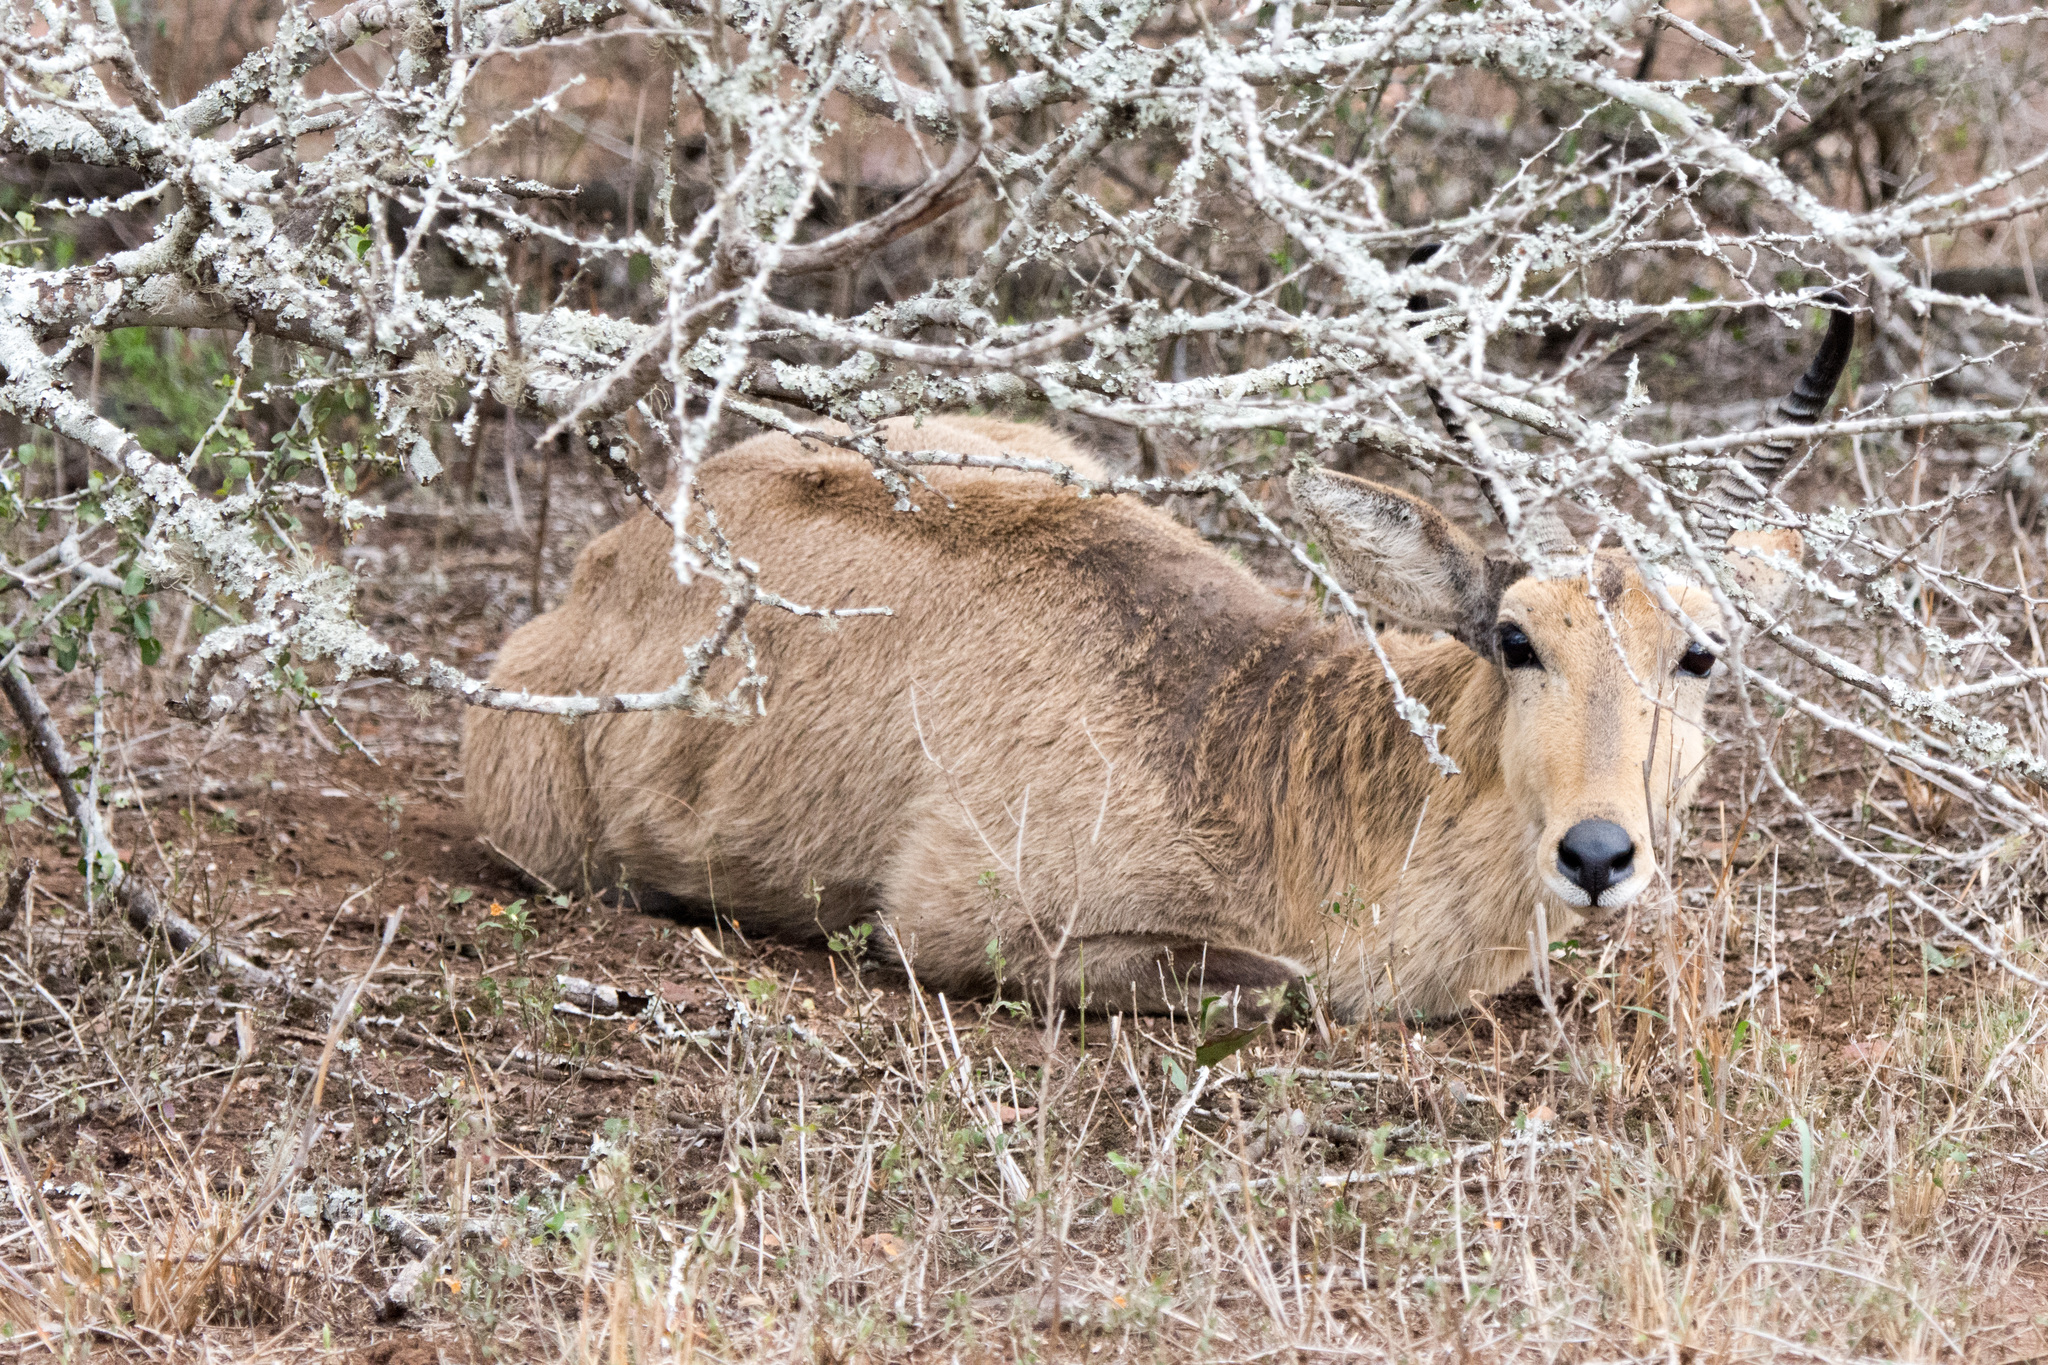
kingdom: Animalia
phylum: Chordata
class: Mammalia
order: Artiodactyla
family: Bovidae
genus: Redunca
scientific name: Redunca arundinum
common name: Southern reedbuck
